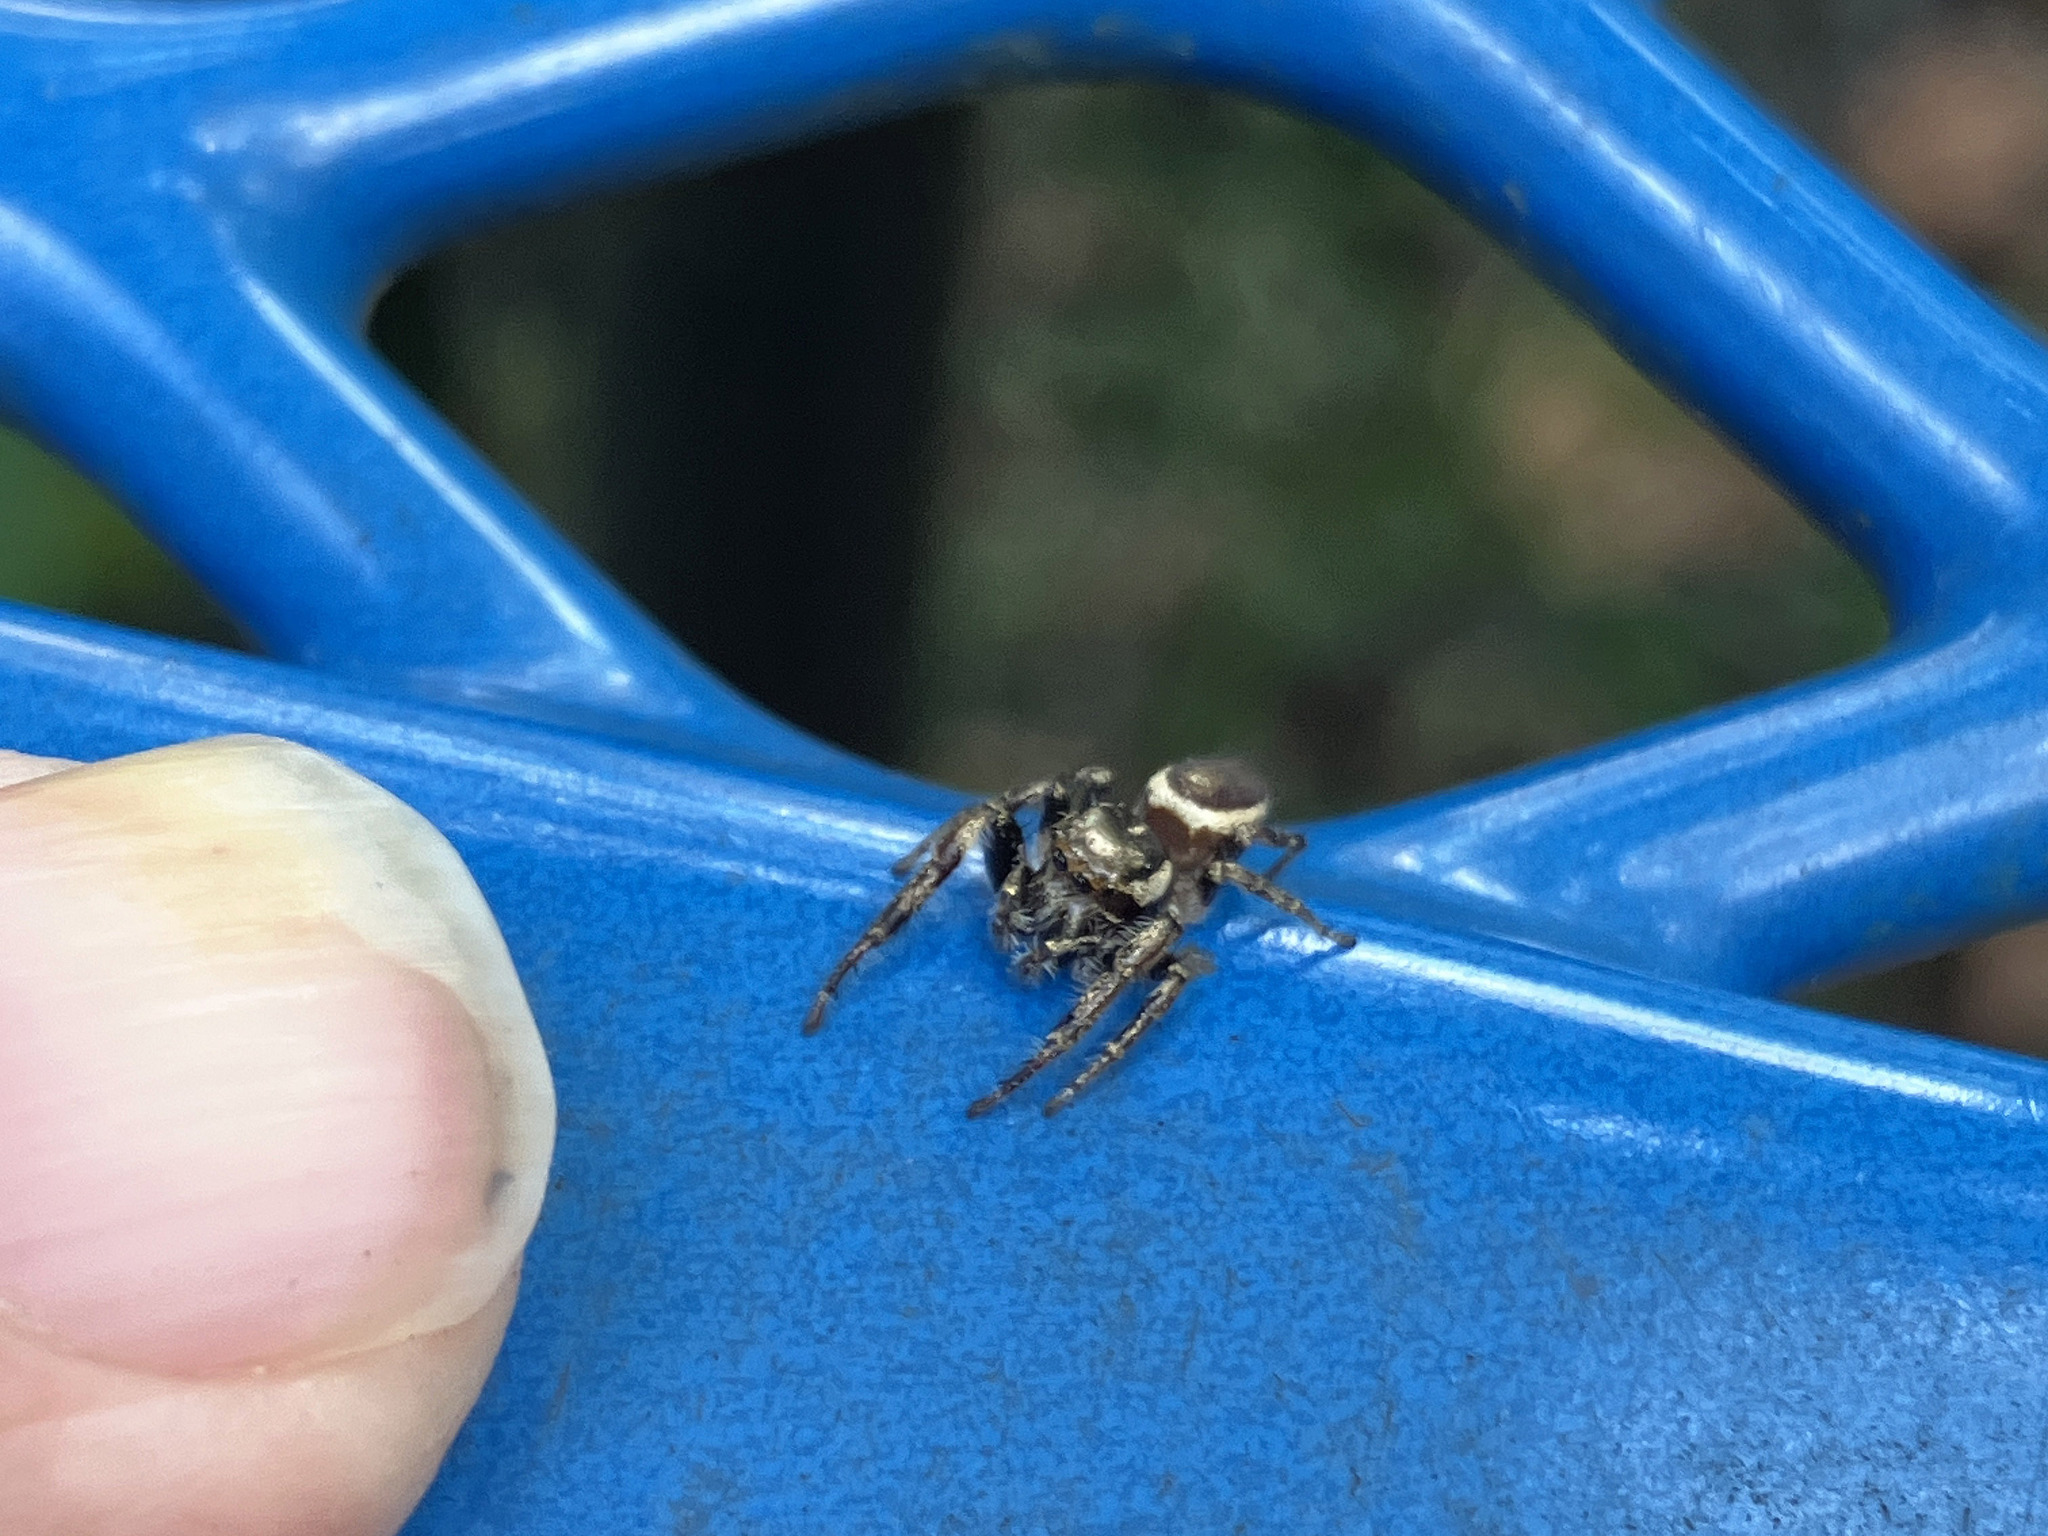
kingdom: Animalia
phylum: Arthropoda
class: Arachnida
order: Araneae
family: Salticidae
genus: Eris
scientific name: Eris militaris
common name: Bronze jumper
